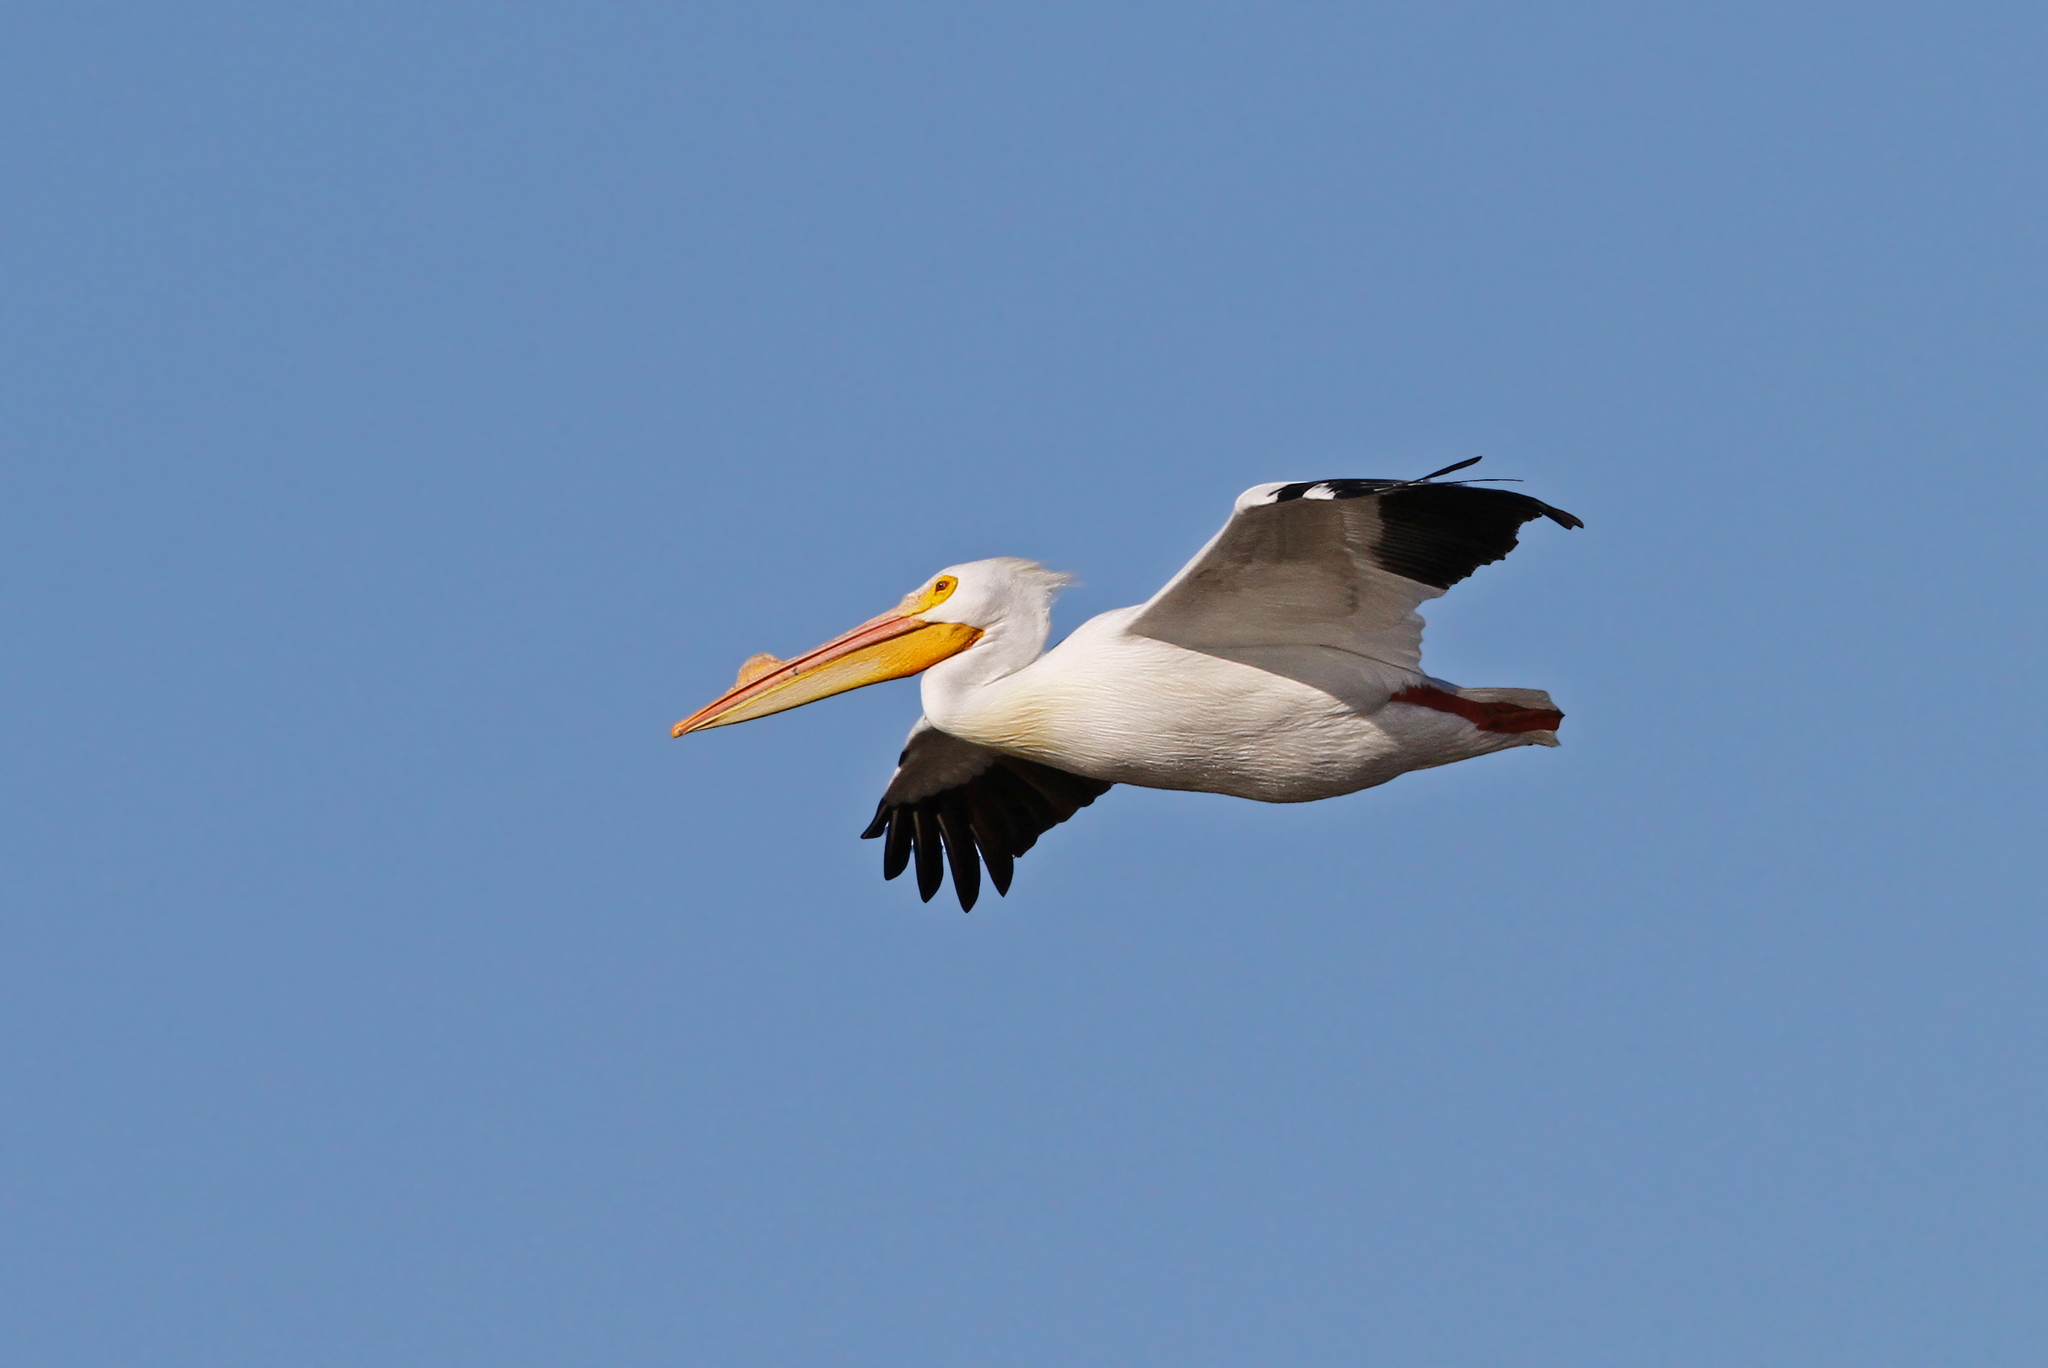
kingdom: Animalia
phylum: Chordata
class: Aves
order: Pelecaniformes
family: Pelecanidae
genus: Pelecanus
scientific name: Pelecanus erythrorhynchos
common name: American white pelican
